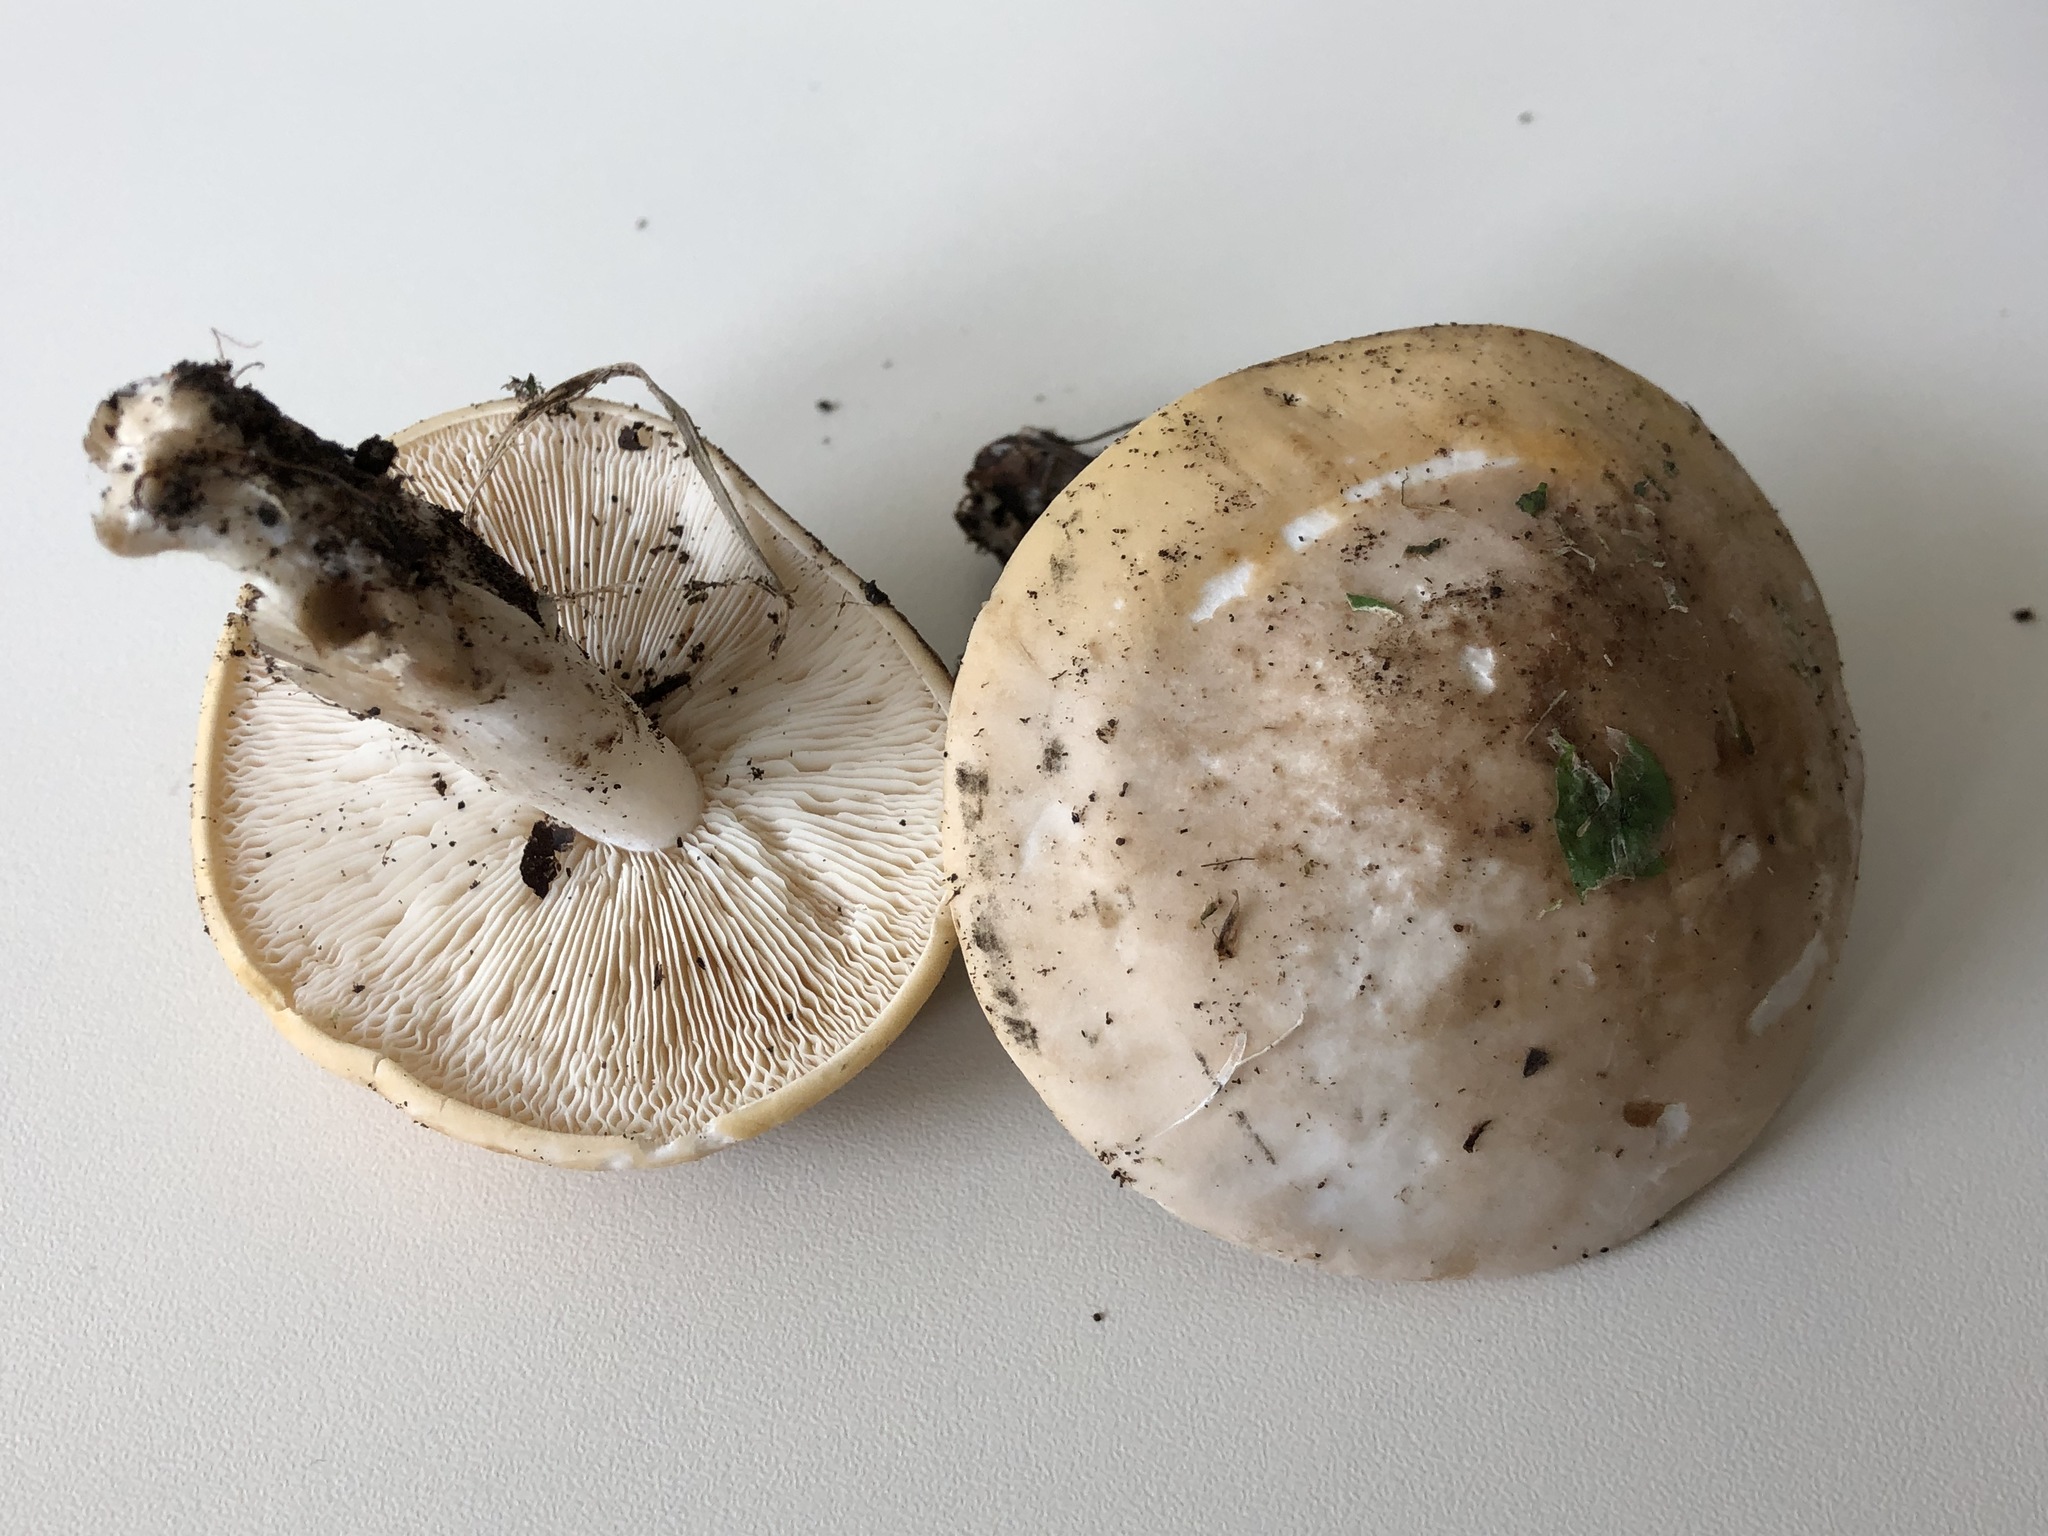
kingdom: Fungi
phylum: Basidiomycota
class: Agaricomycetes
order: Agaricales
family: Lyophyllaceae
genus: Calocybe
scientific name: Calocybe gambosa
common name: St. george's mushroom
